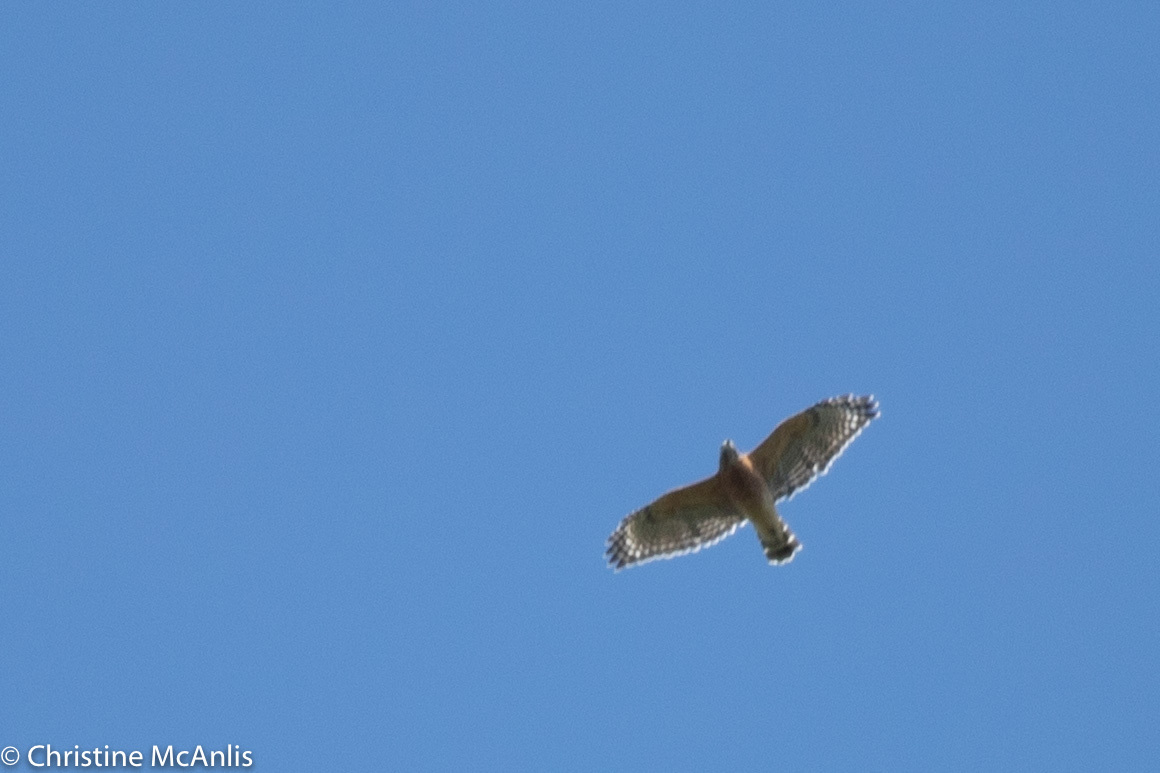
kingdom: Animalia
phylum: Chordata
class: Aves
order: Accipitriformes
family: Accipitridae
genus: Buteo
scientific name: Buteo lineatus
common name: Red-shouldered hawk
